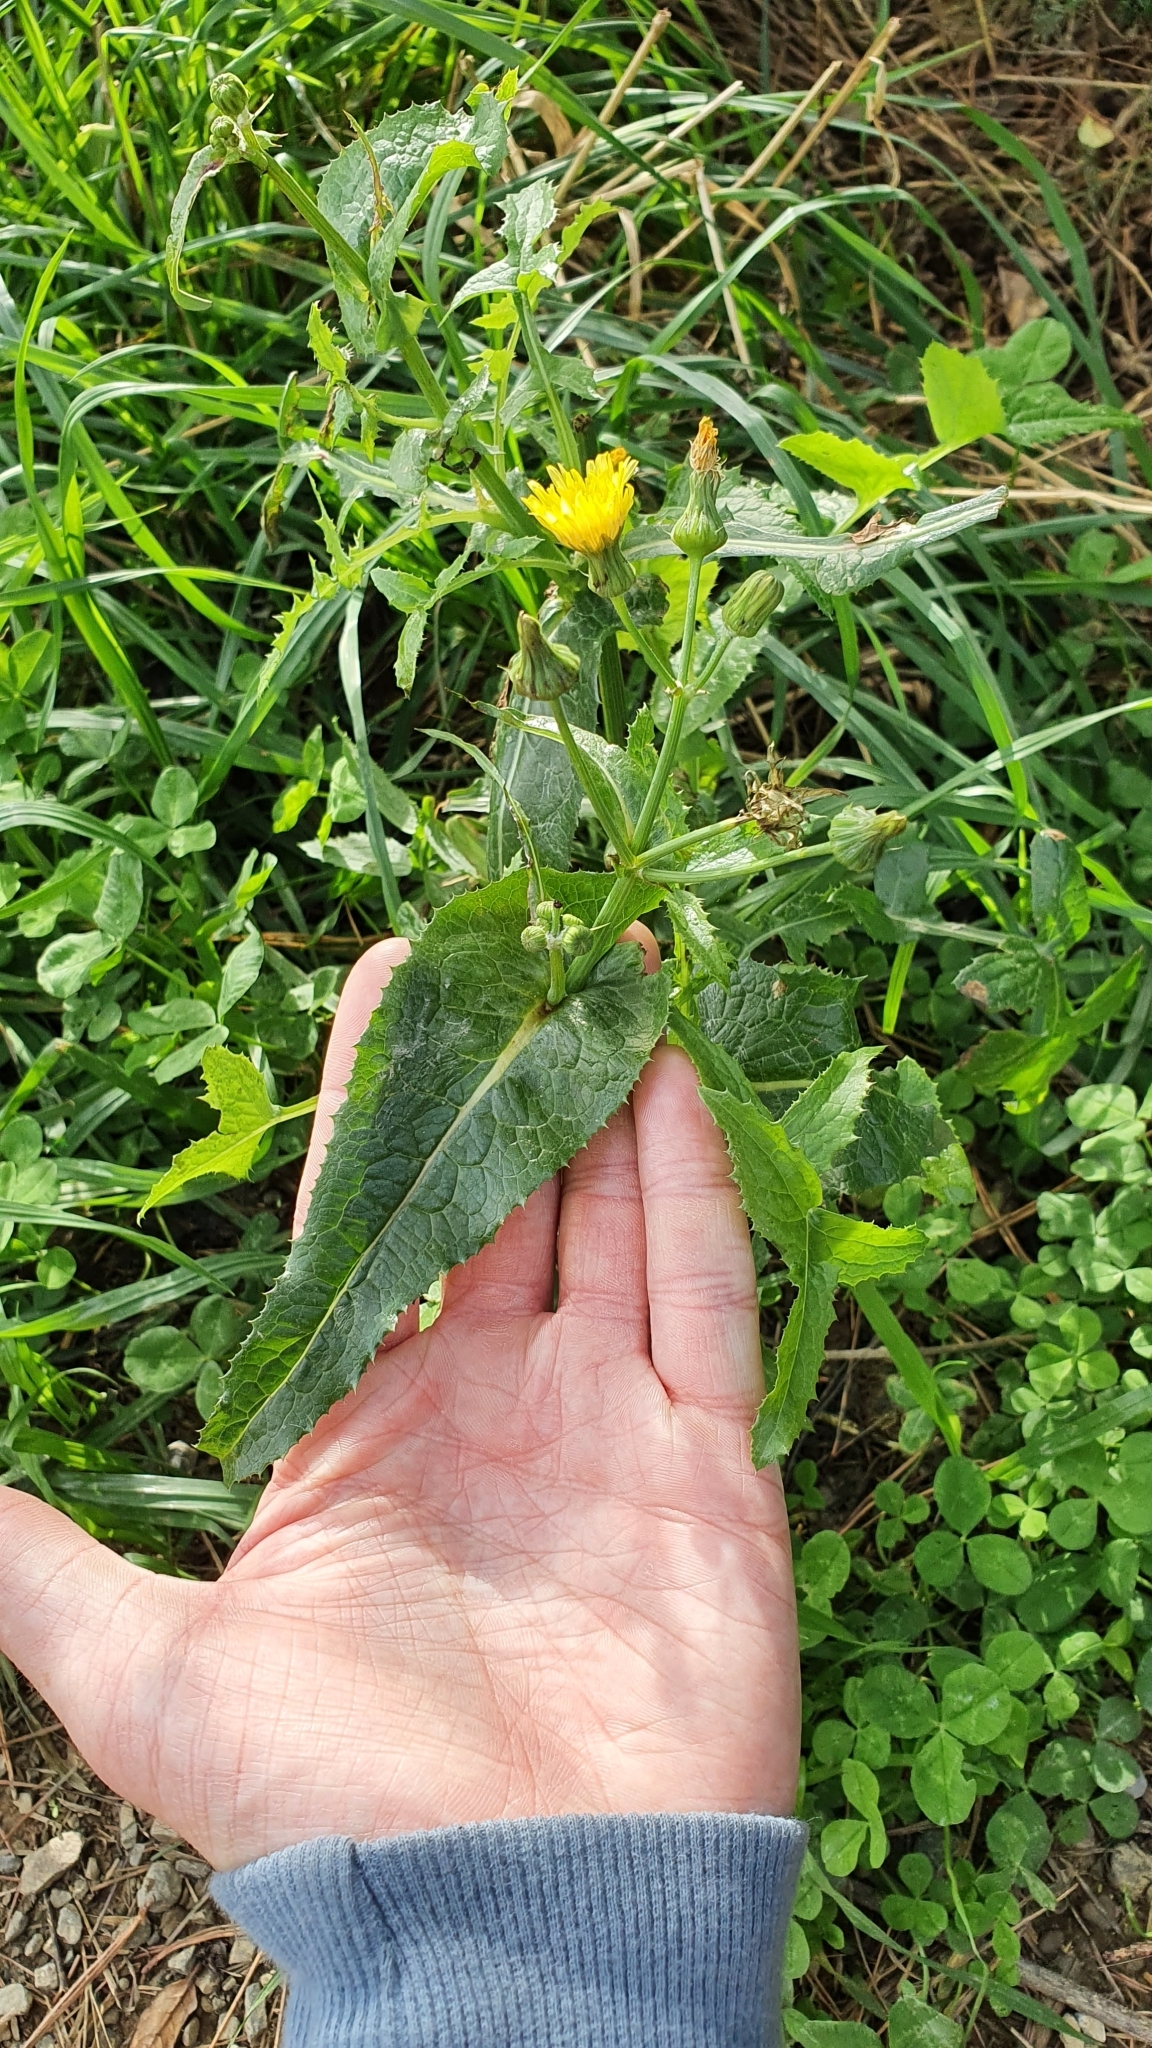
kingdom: Plantae
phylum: Tracheophyta
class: Magnoliopsida
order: Asterales
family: Asteraceae
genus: Sonchus
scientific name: Sonchus oleraceus
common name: Common sowthistle
